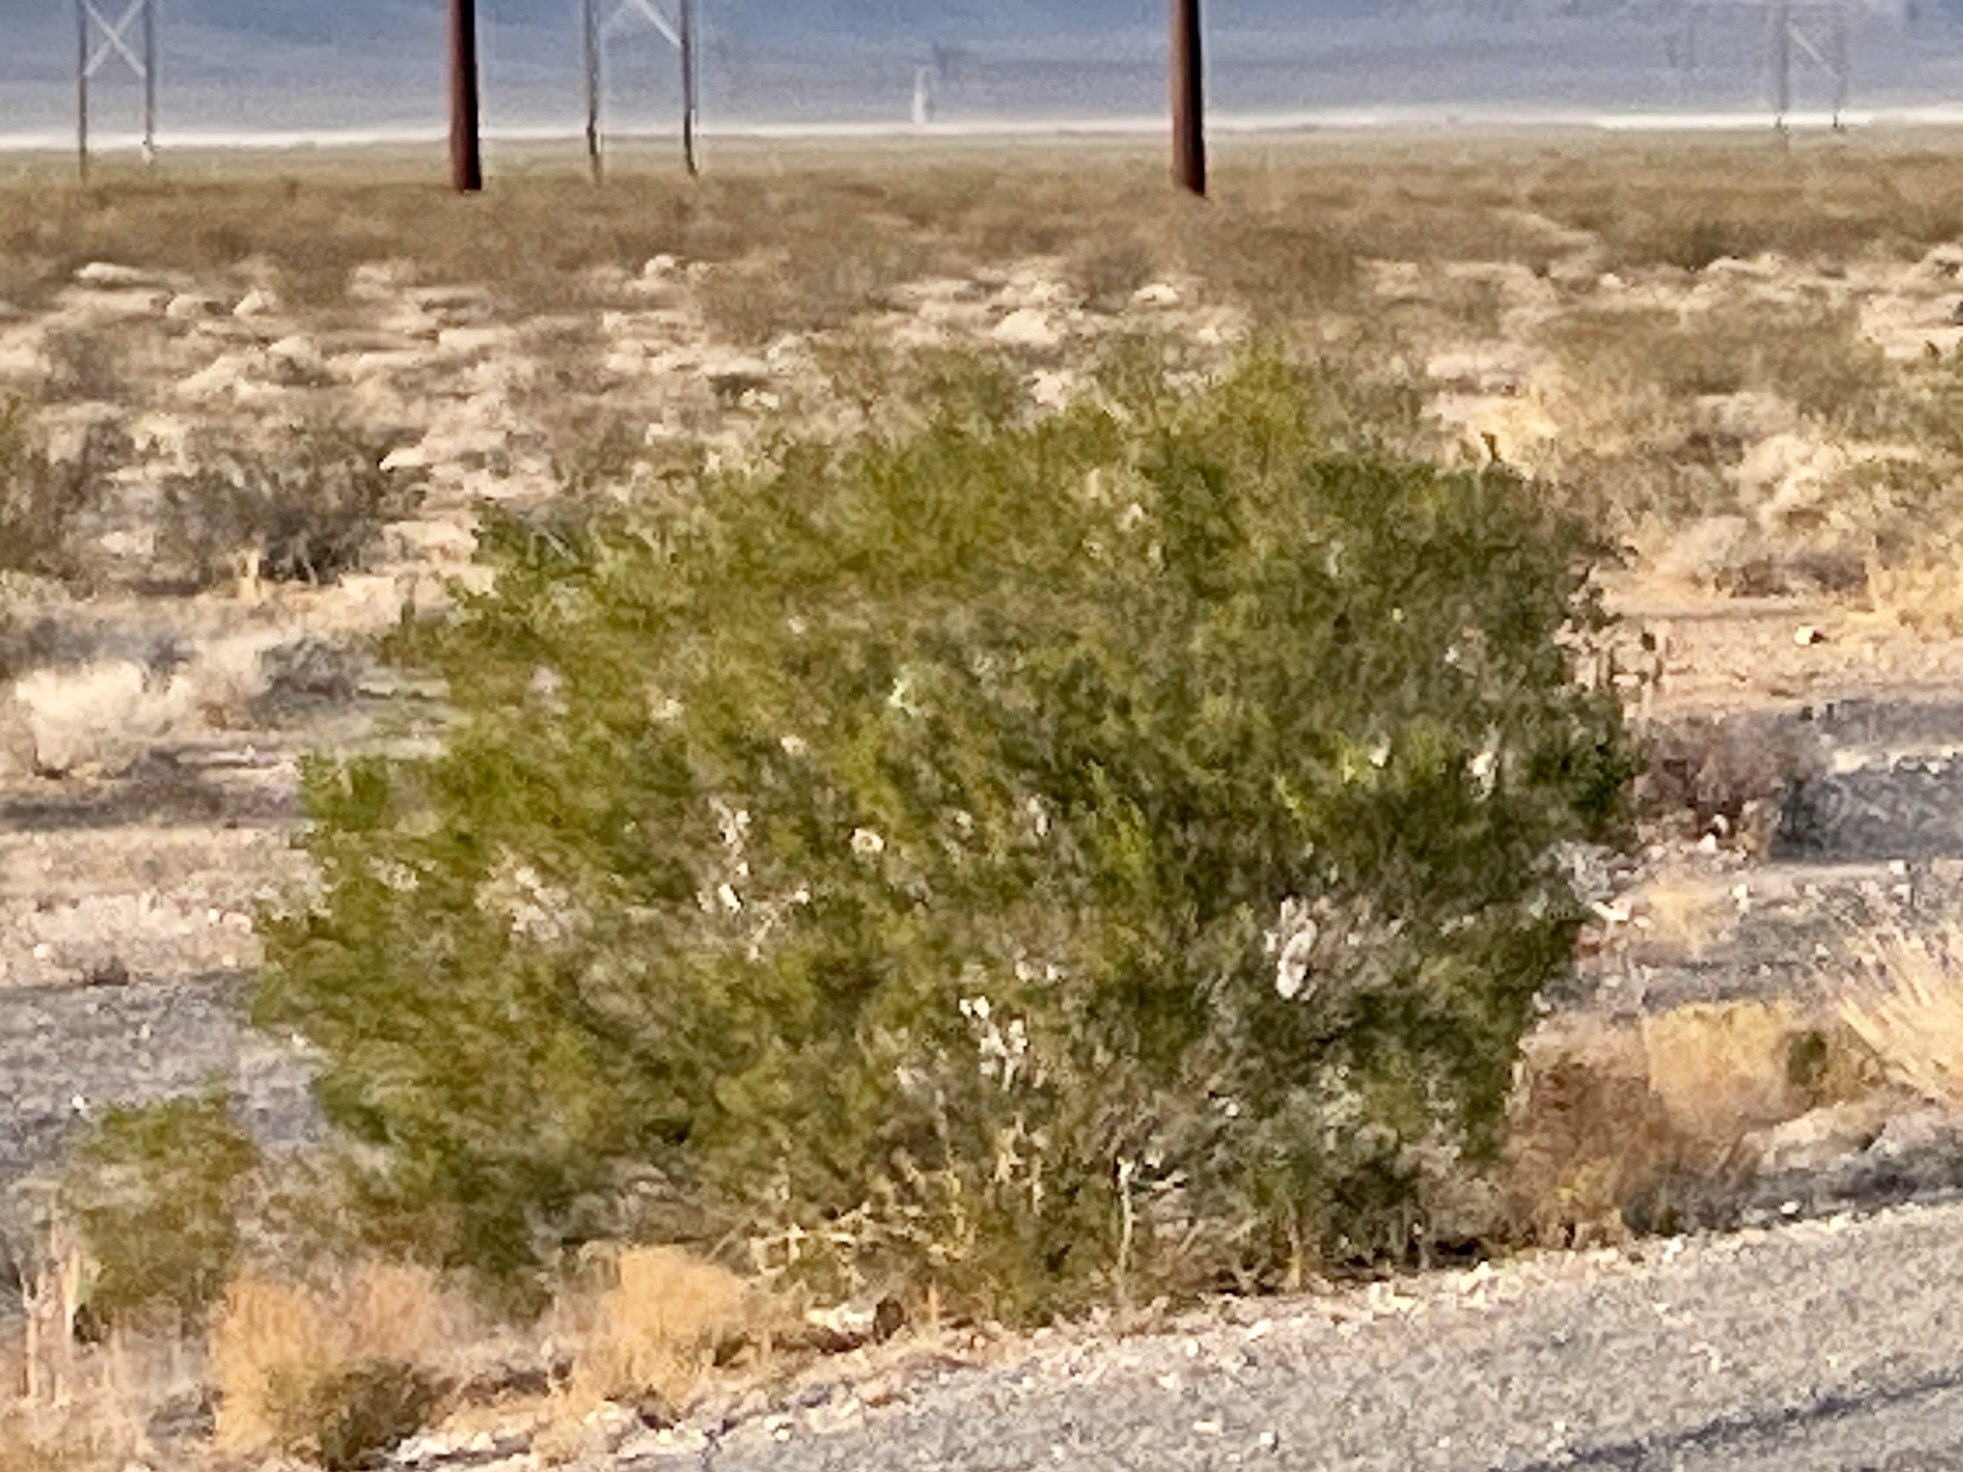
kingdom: Plantae
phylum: Tracheophyta
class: Magnoliopsida
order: Zygophyllales
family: Zygophyllaceae
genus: Larrea
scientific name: Larrea tridentata
